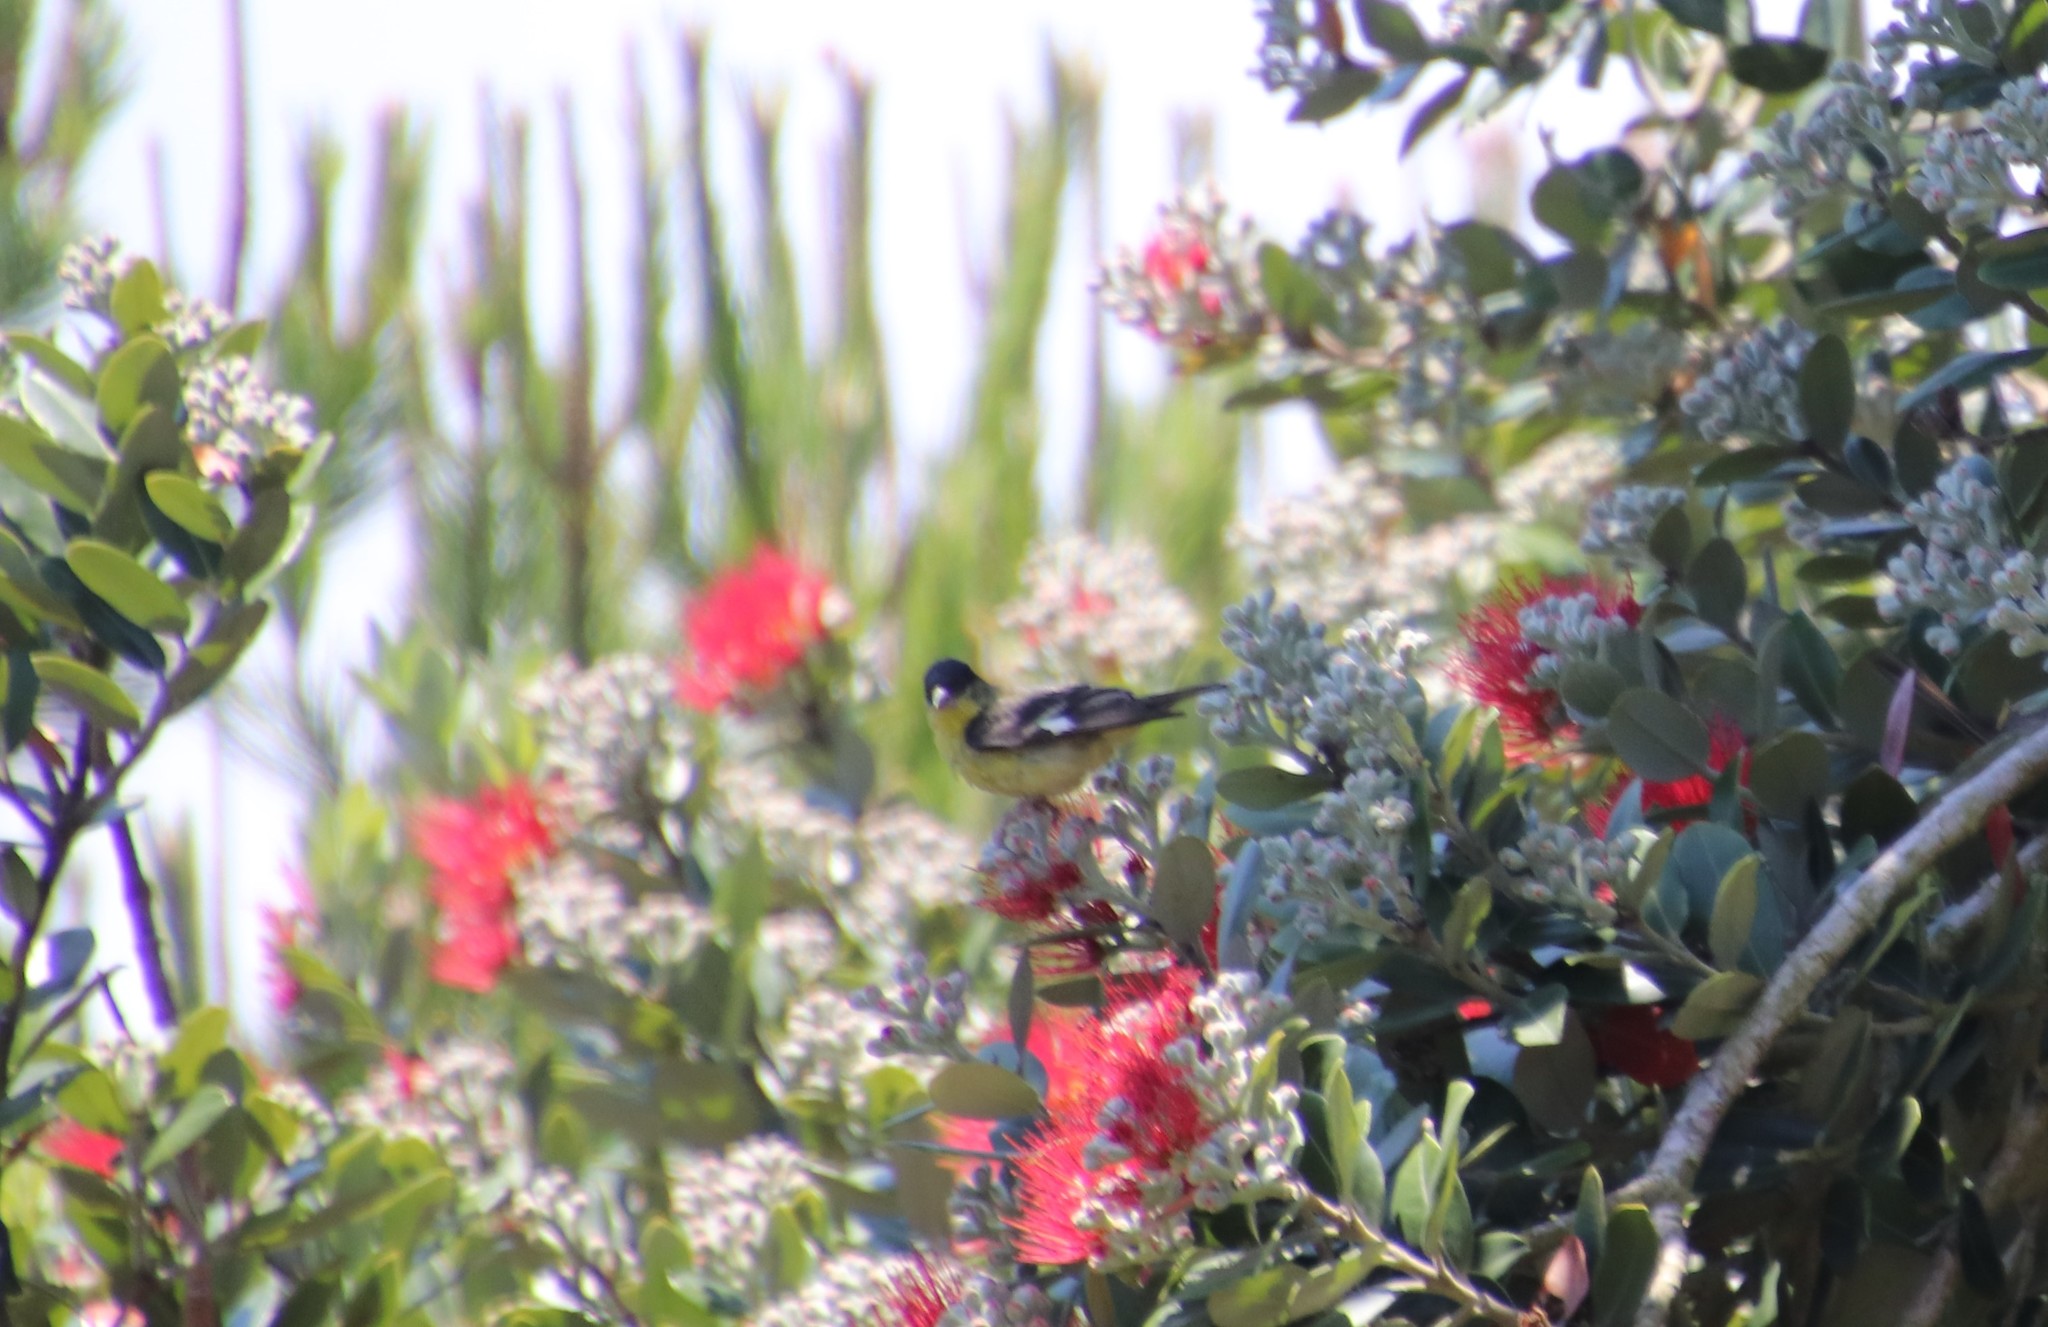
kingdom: Animalia
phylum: Chordata
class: Aves
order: Passeriformes
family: Fringillidae
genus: Spinus
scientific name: Spinus psaltria
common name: Lesser goldfinch
